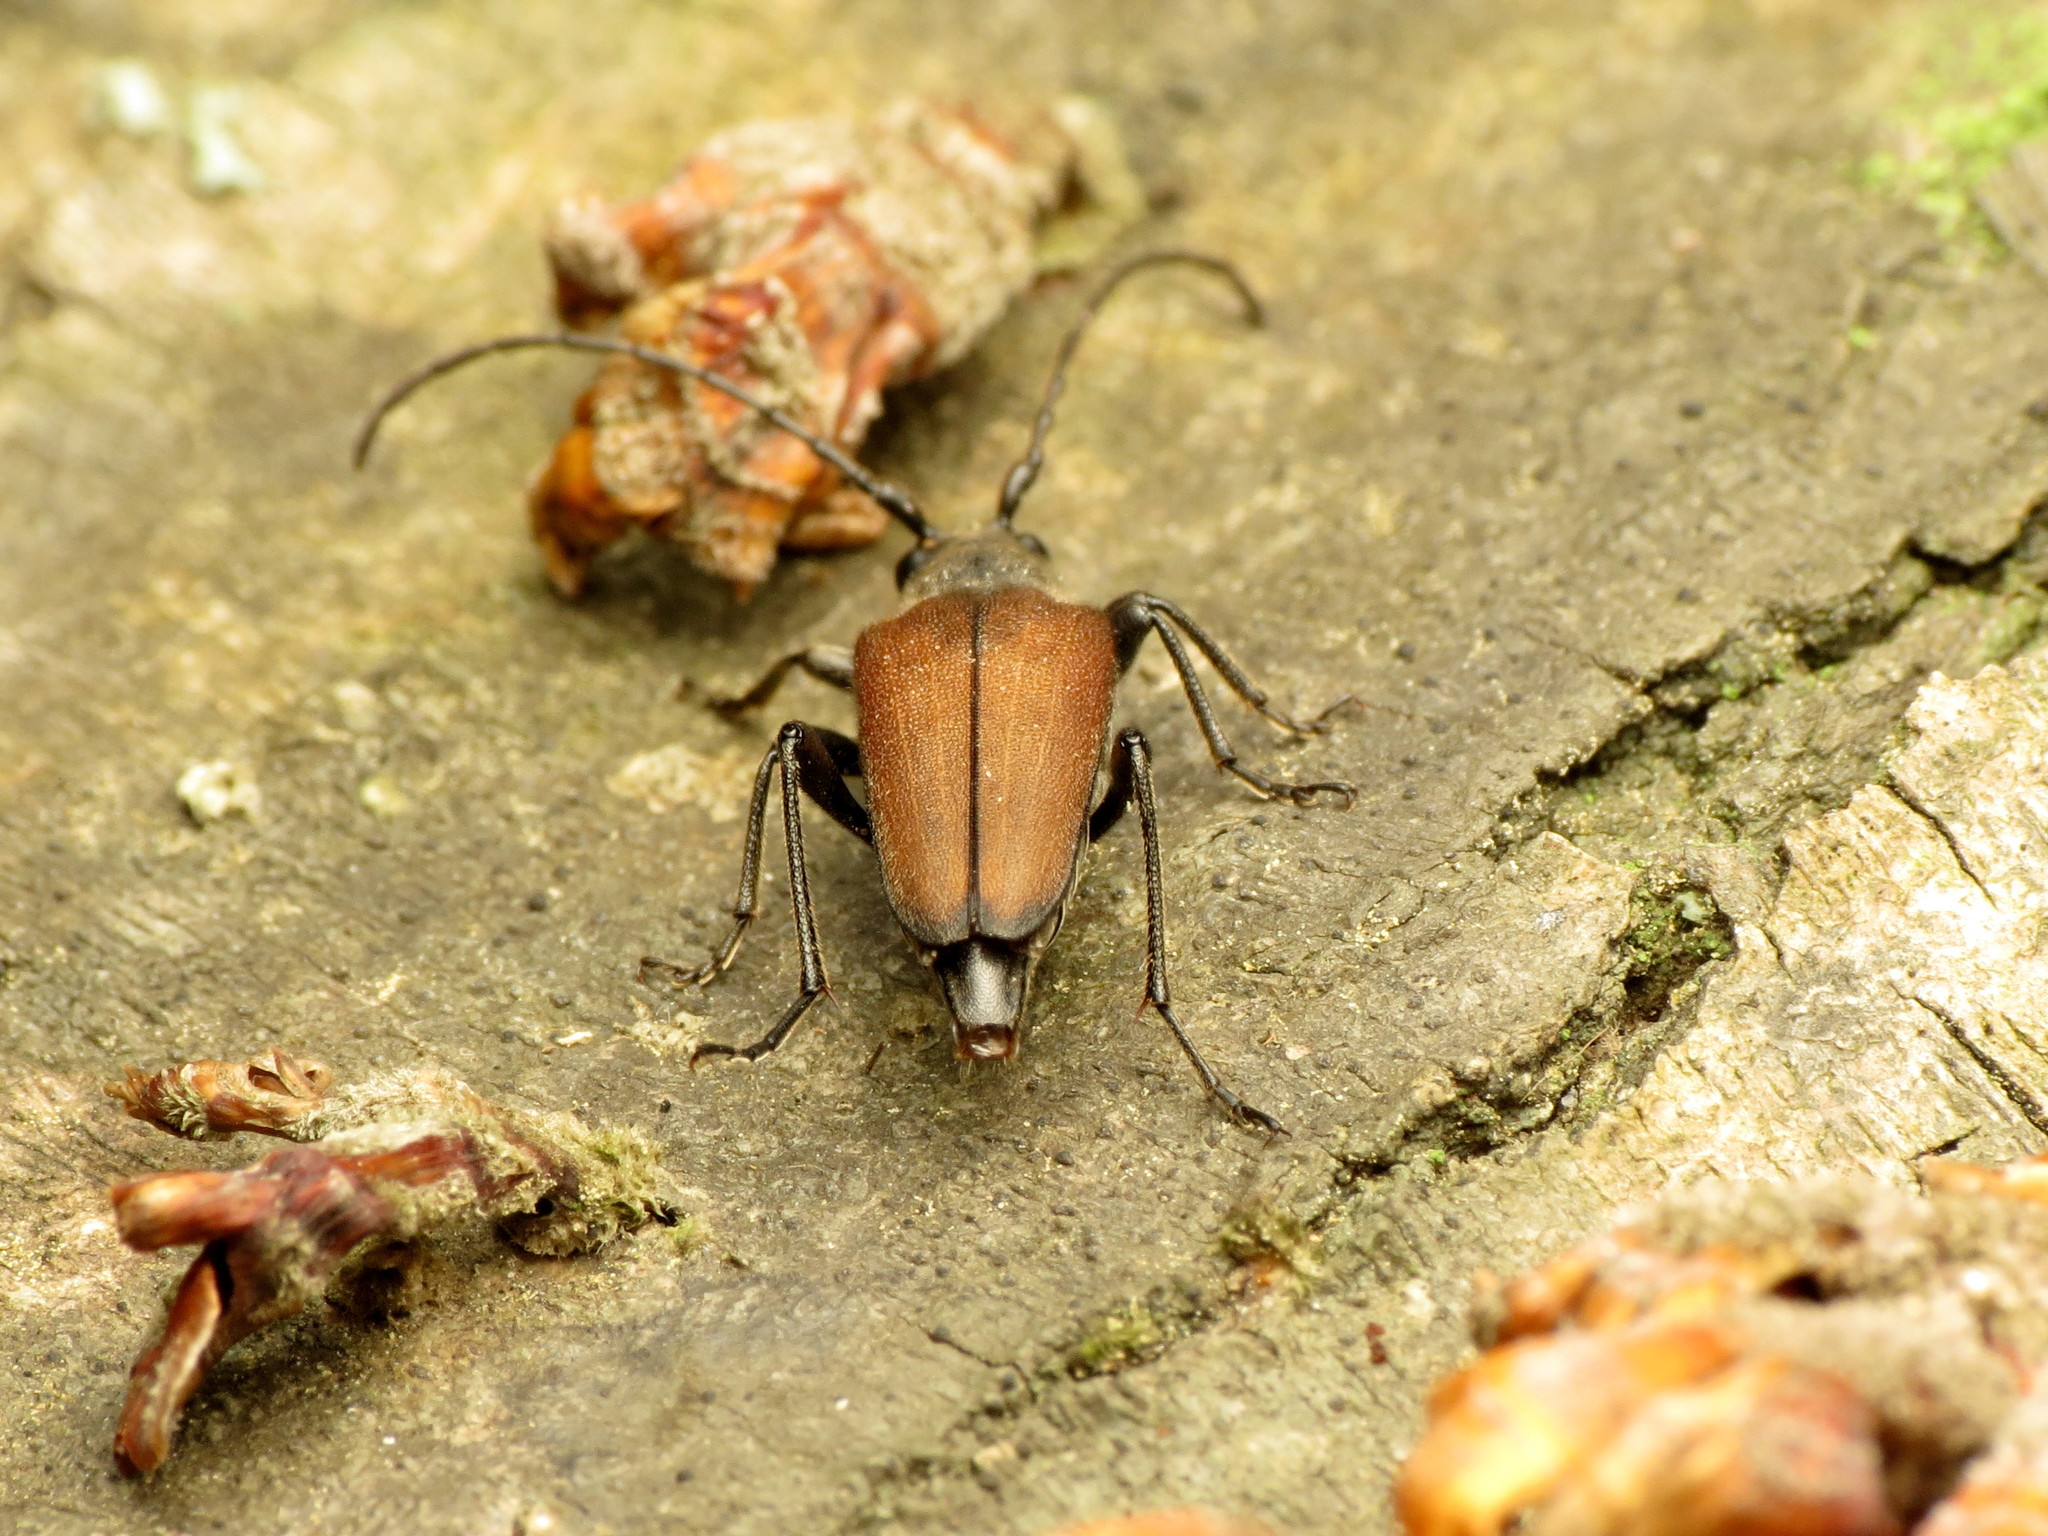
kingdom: Animalia
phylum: Arthropoda
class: Insecta
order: Coleoptera
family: Cerambycidae
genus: Trachysida
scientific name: Trachysida mutabilis
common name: Changeable flower longhorn
